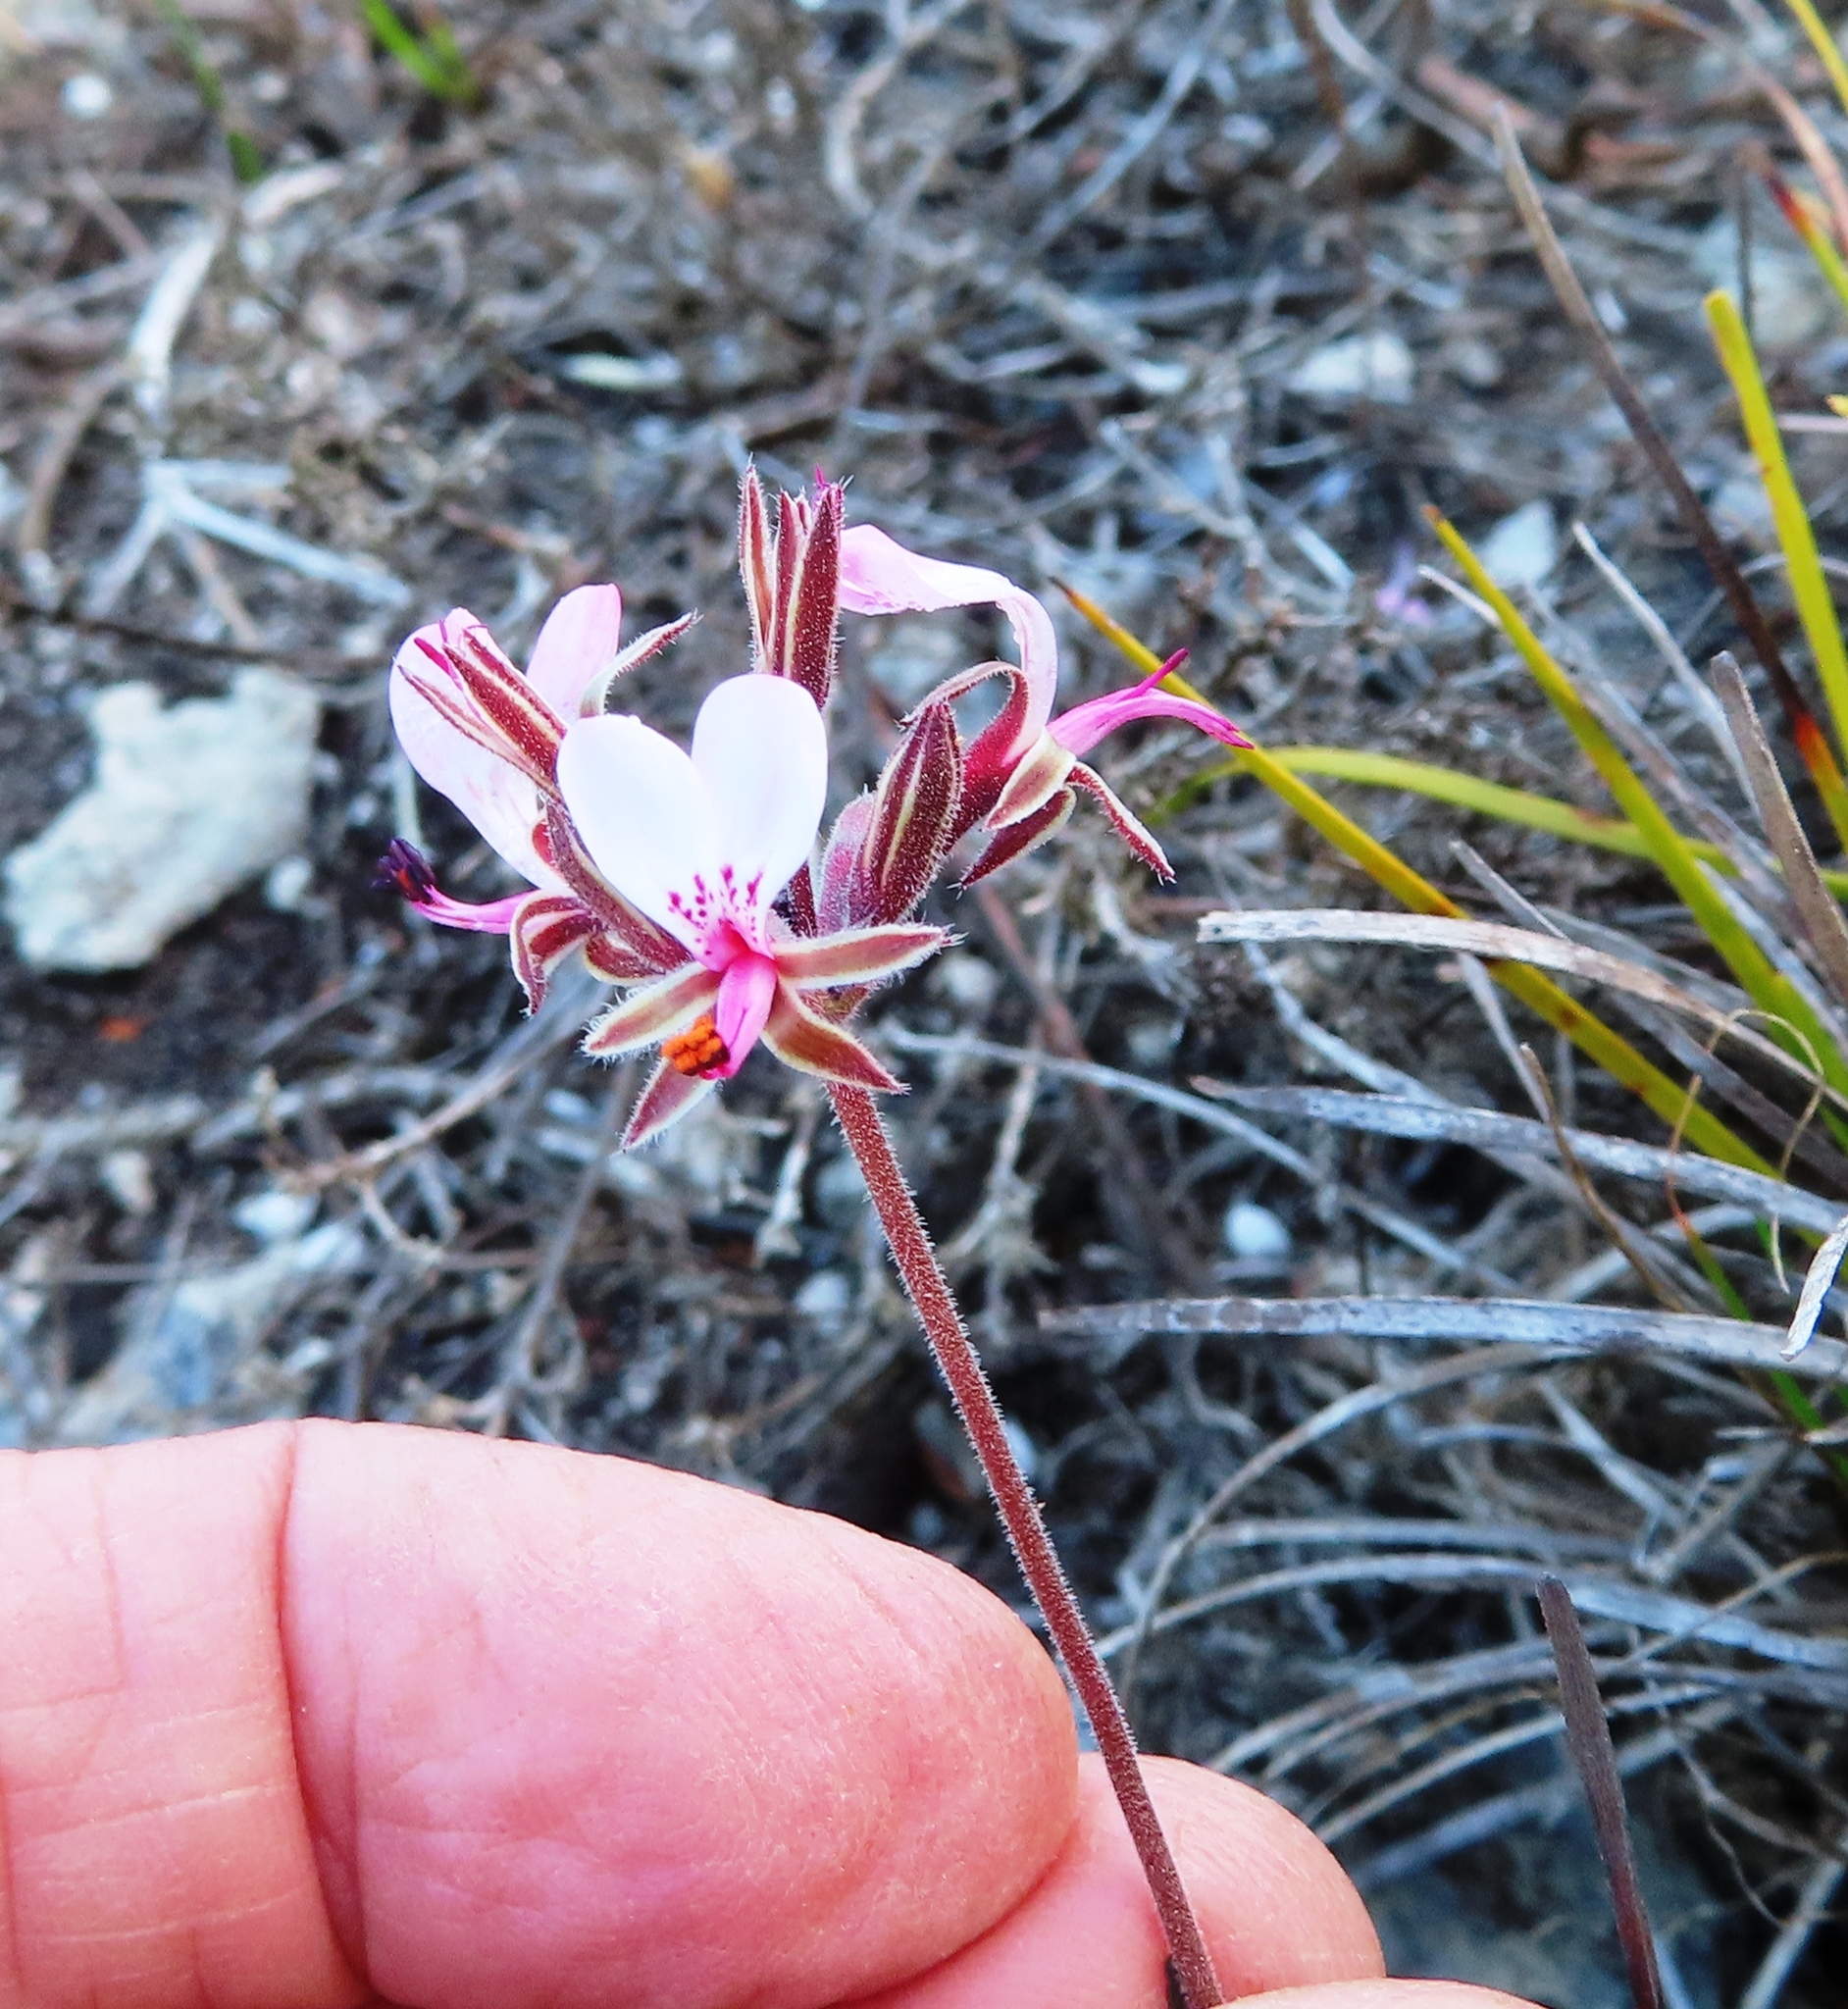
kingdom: Plantae
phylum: Tracheophyta
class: Magnoliopsida
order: Geraniales
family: Geraniaceae
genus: Pelargonium
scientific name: Pelargonium dipetalum
